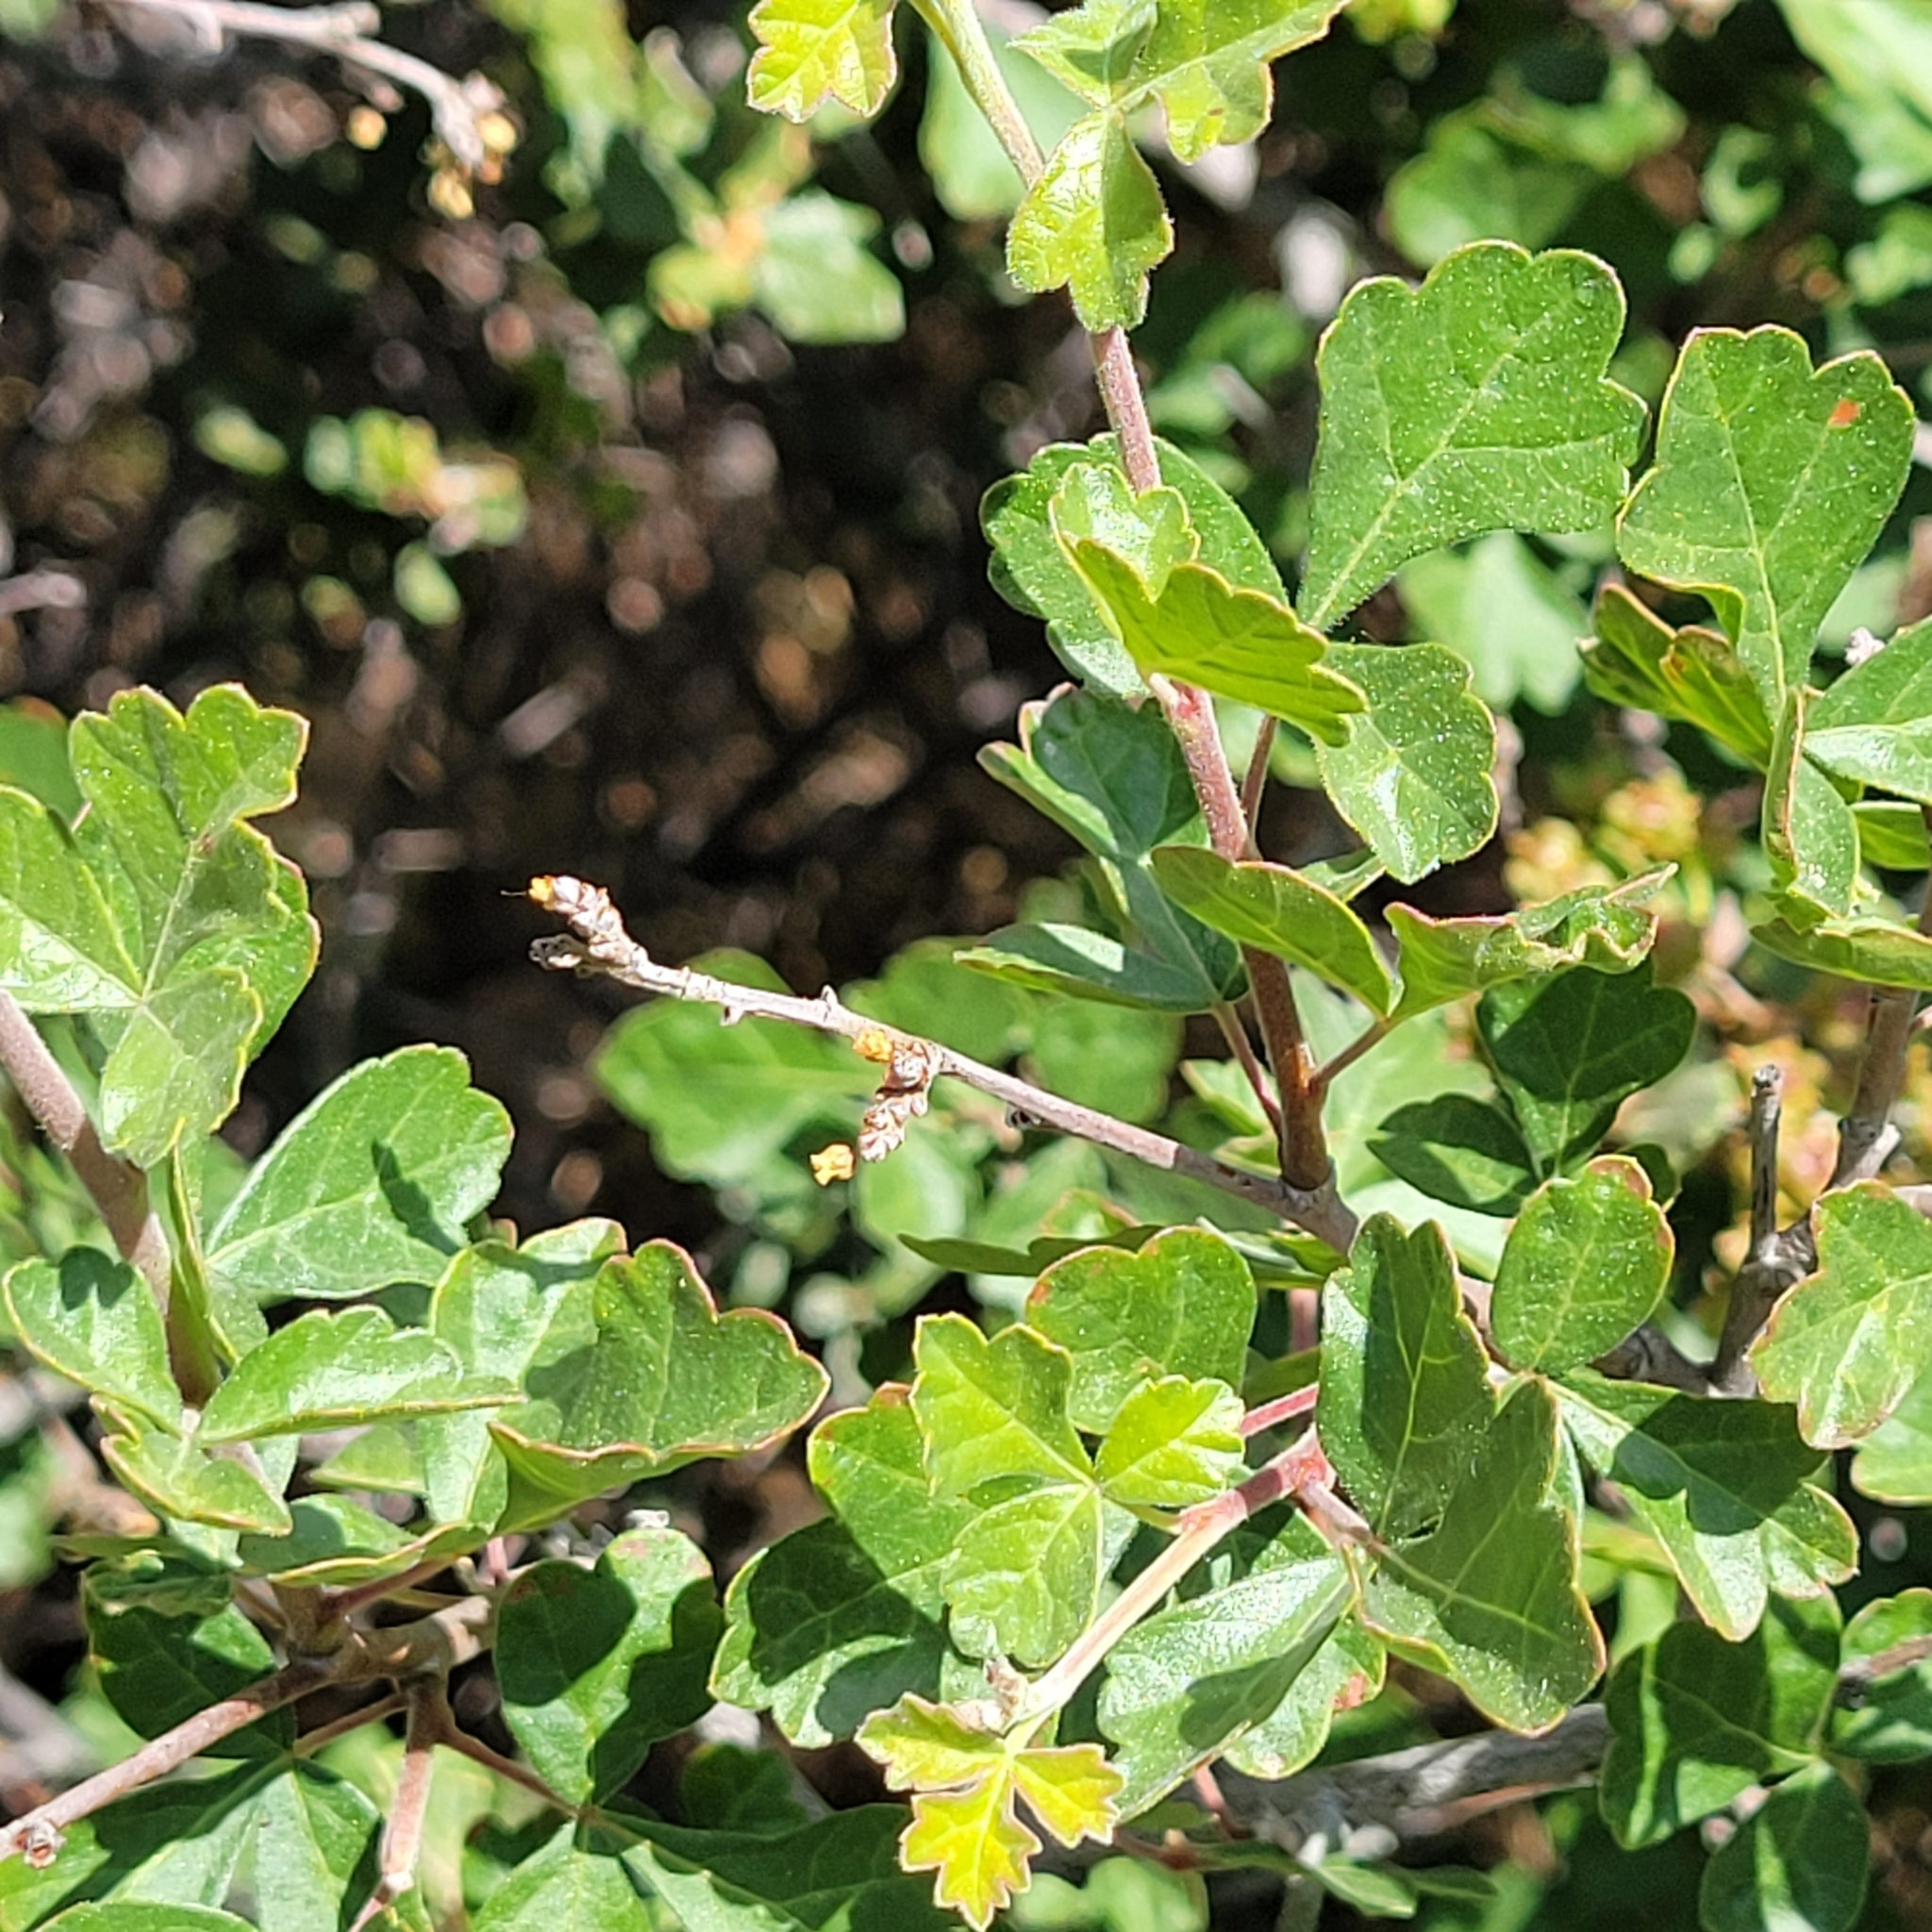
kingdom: Plantae
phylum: Tracheophyta
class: Magnoliopsida
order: Sapindales
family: Anacardiaceae
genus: Rhus
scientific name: Rhus aromatica
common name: Aromatic sumac
